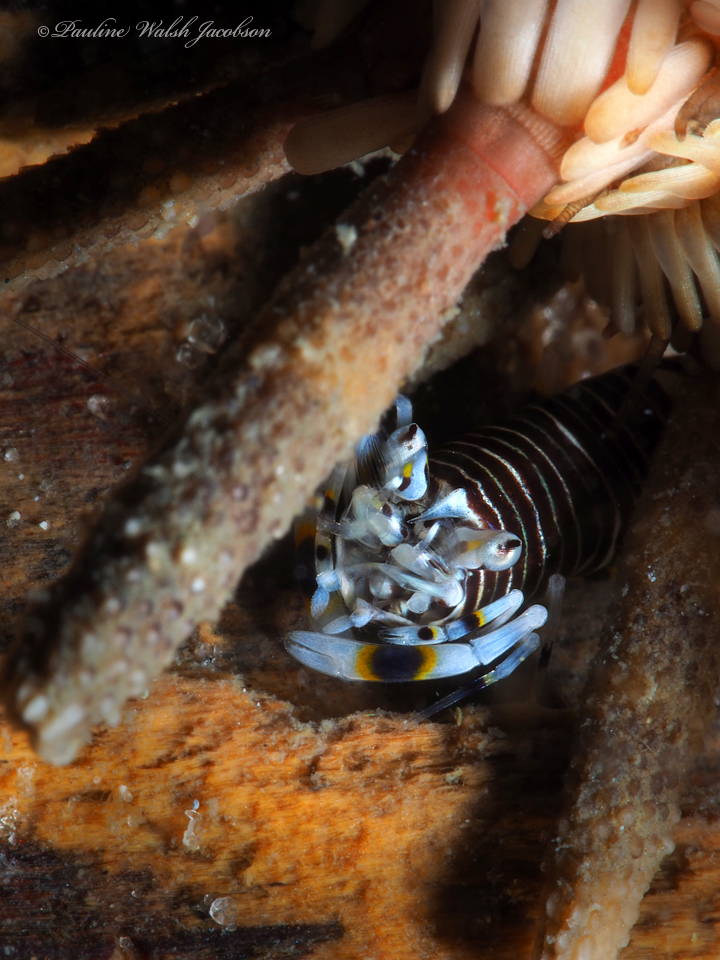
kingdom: Animalia
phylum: Arthropoda
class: Malacostraca
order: Decapoda
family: Palaemonidae
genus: Gnathophyllum
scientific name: Gnathophyllum americanum
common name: Bumblebee shrimp
